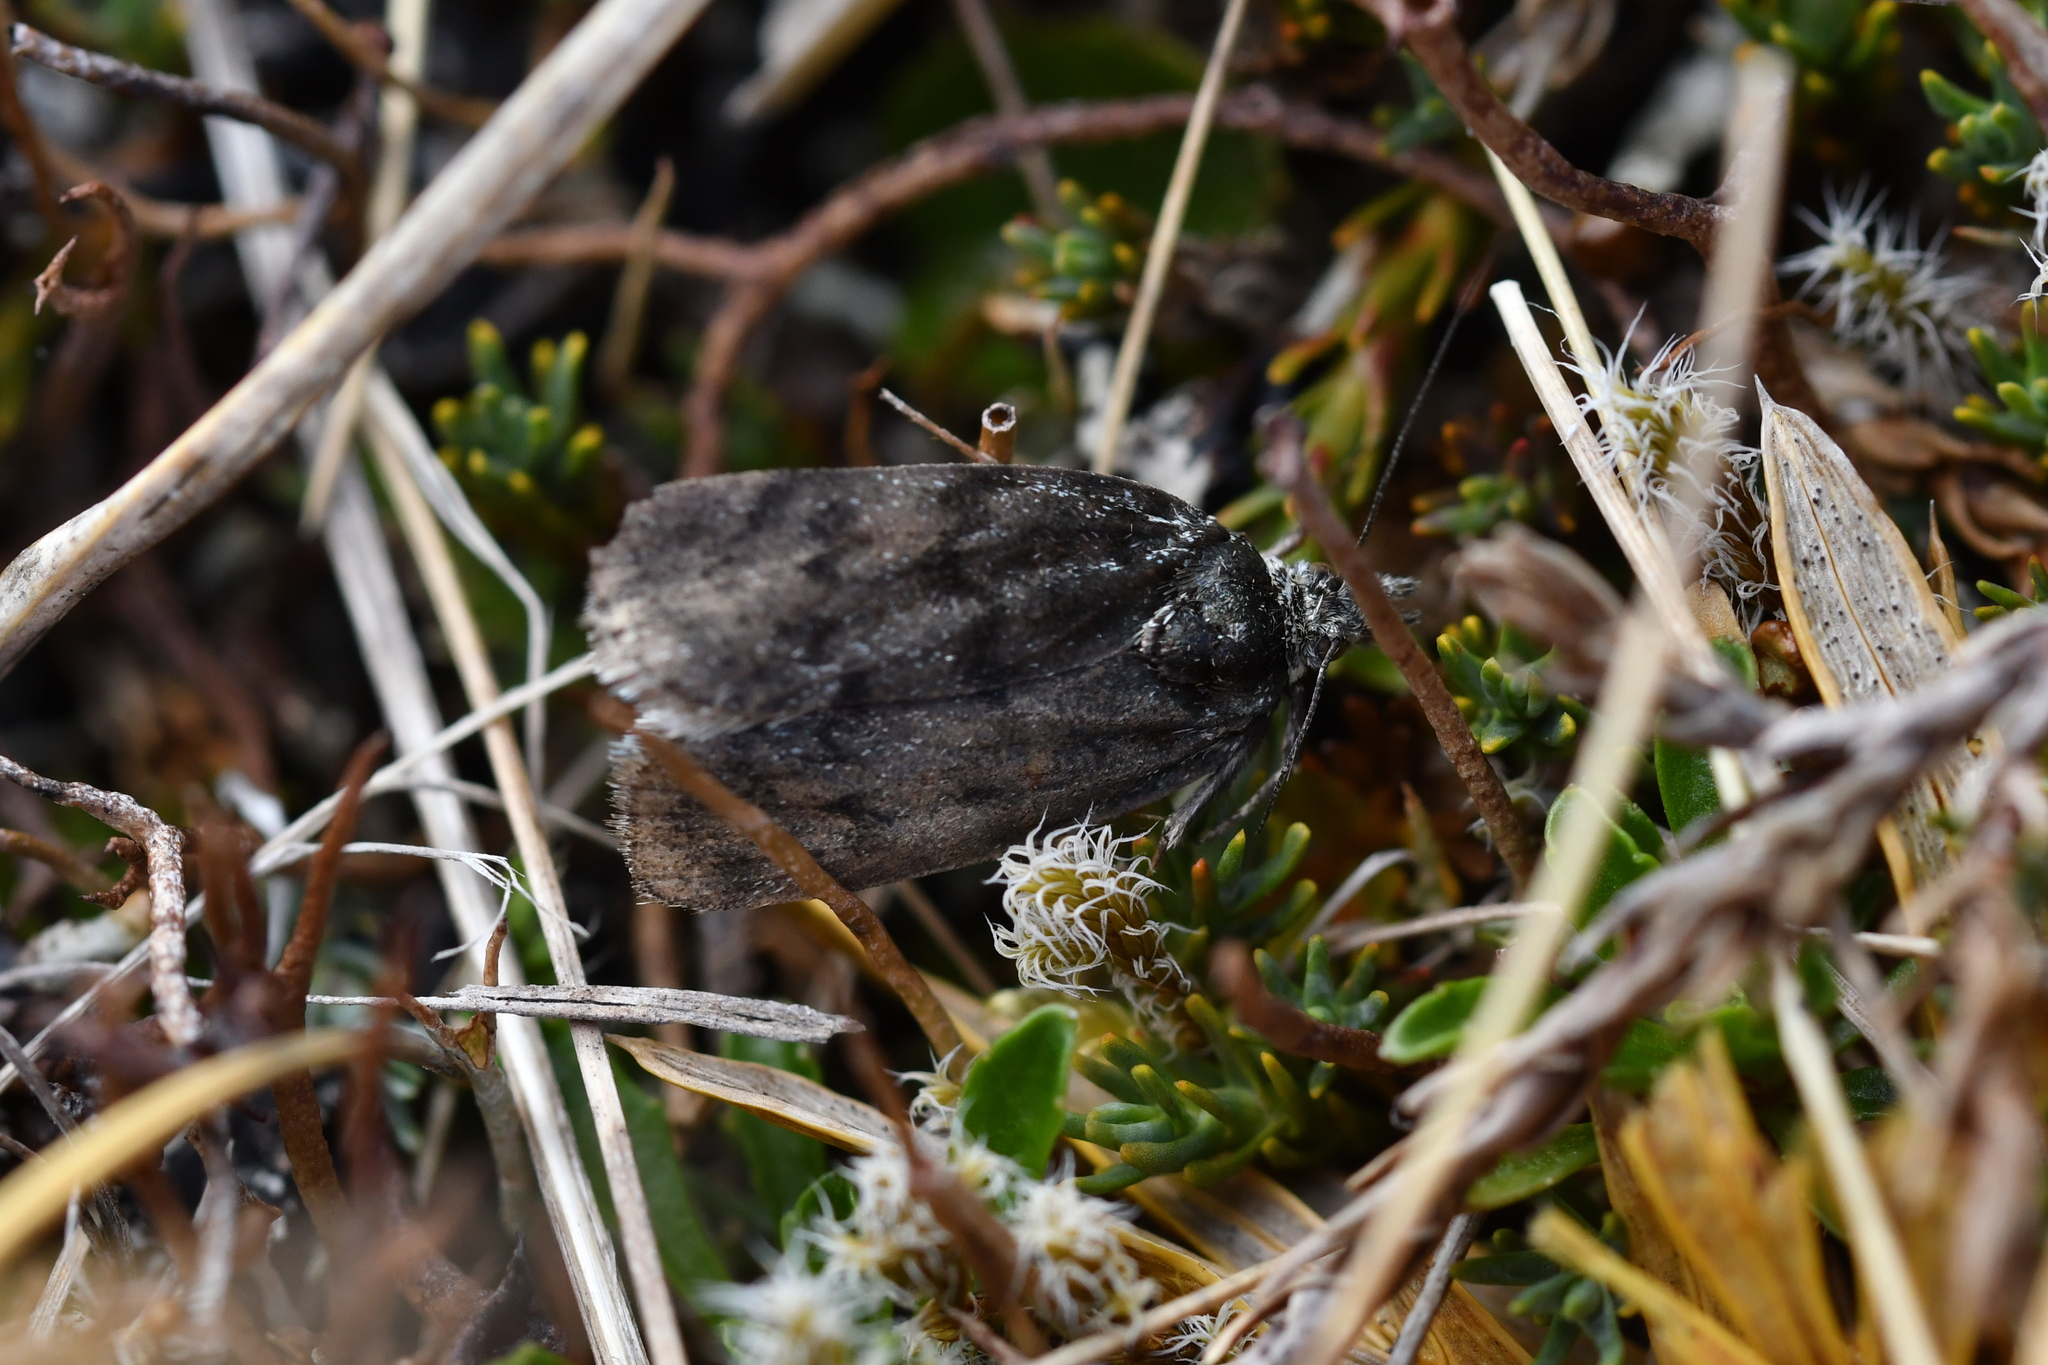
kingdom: Animalia
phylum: Arthropoda
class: Insecta
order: Lepidoptera
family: Crambidae
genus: Tawhitia
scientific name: Tawhitia glaucophanes
